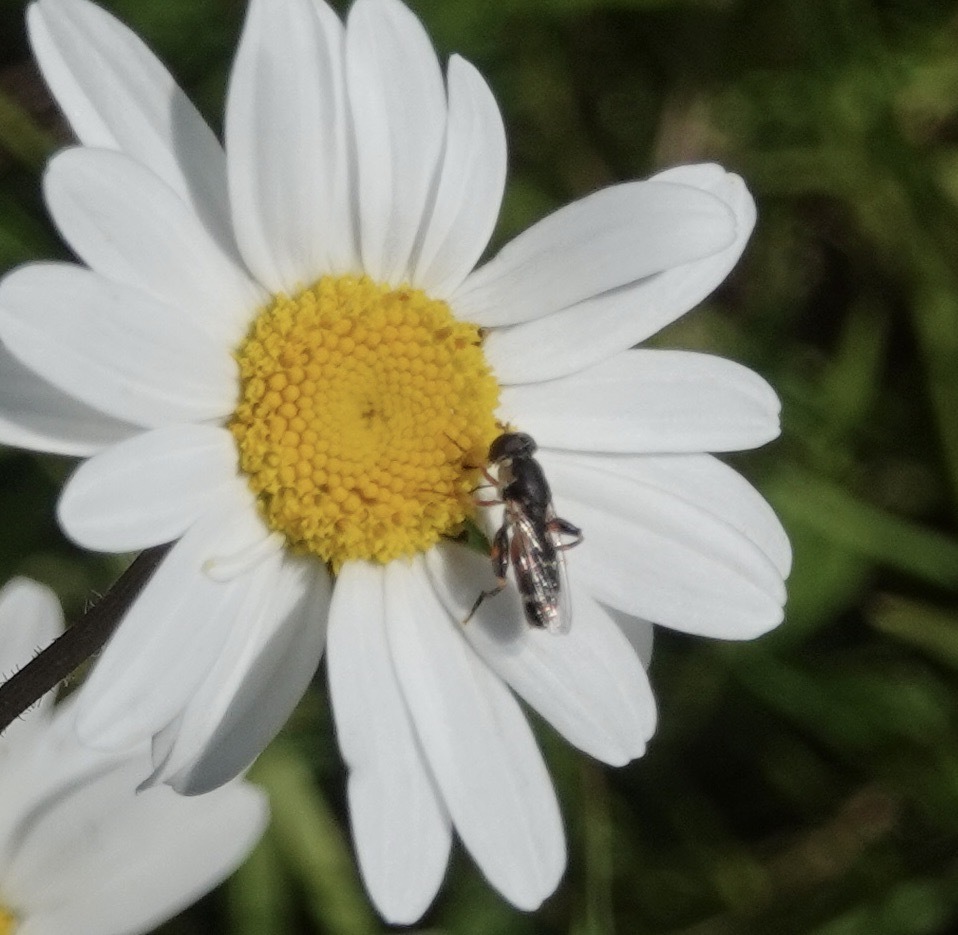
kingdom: Animalia
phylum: Arthropoda
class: Insecta
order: Diptera
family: Syrphidae
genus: Syritta
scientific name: Syritta pipiens
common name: Hover fly
